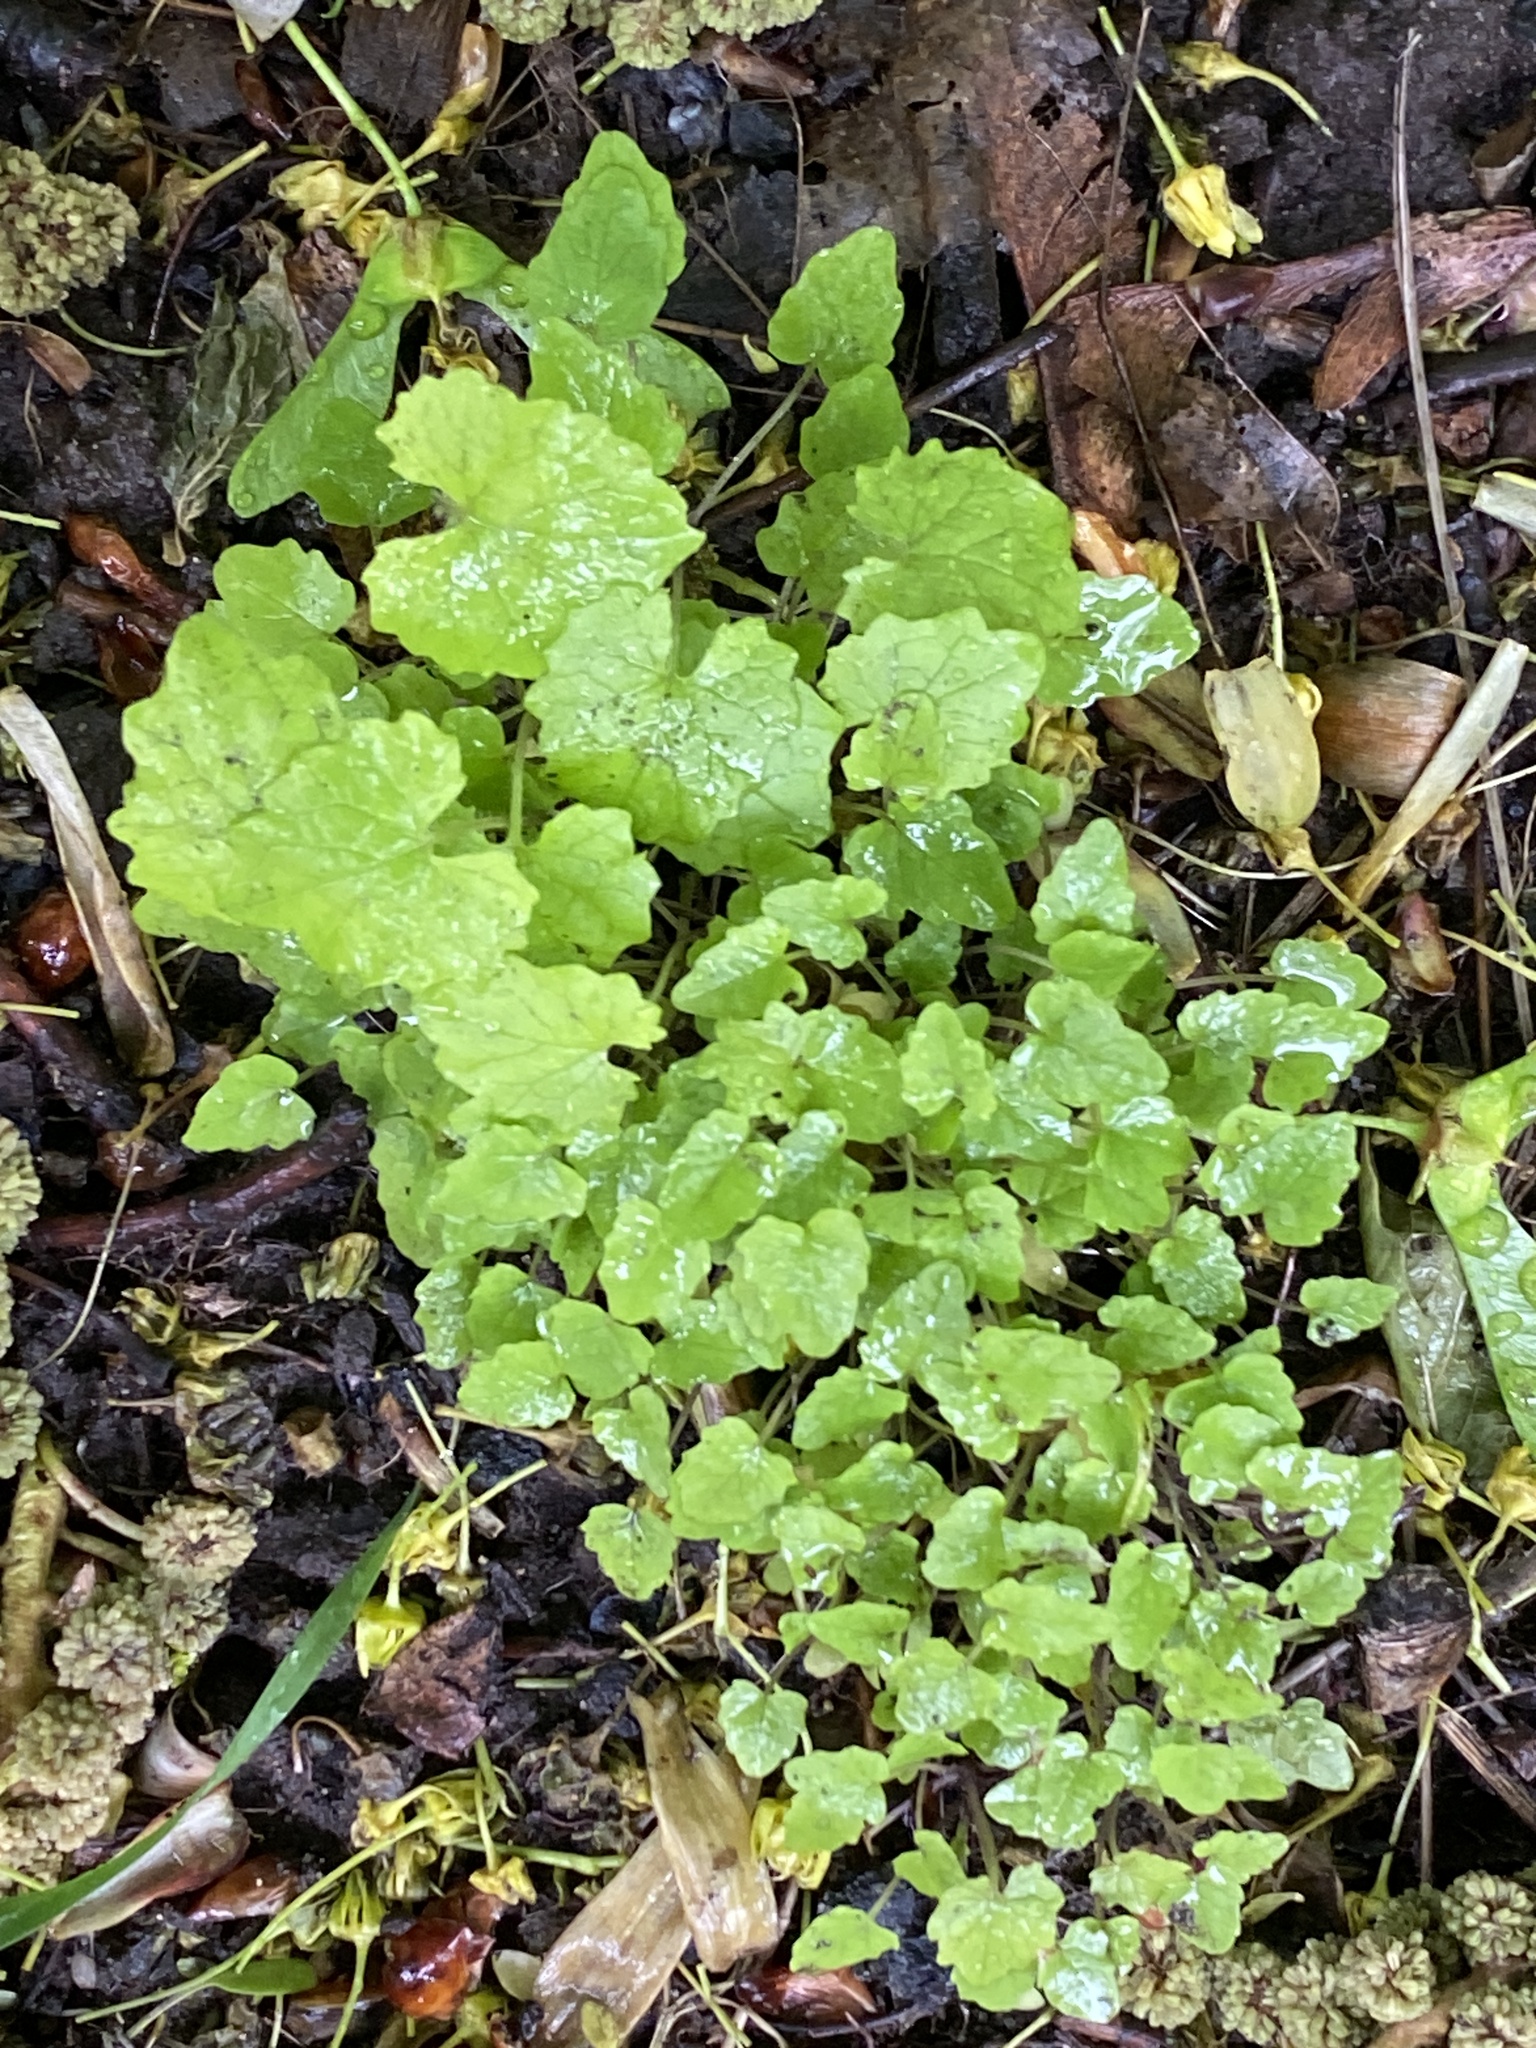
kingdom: Plantae
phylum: Tracheophyta
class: Magnoliopsida
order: Brassicales
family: Brassicaceae
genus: Alliaria
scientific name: Alliaria petiolata
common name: Garlic mustard
